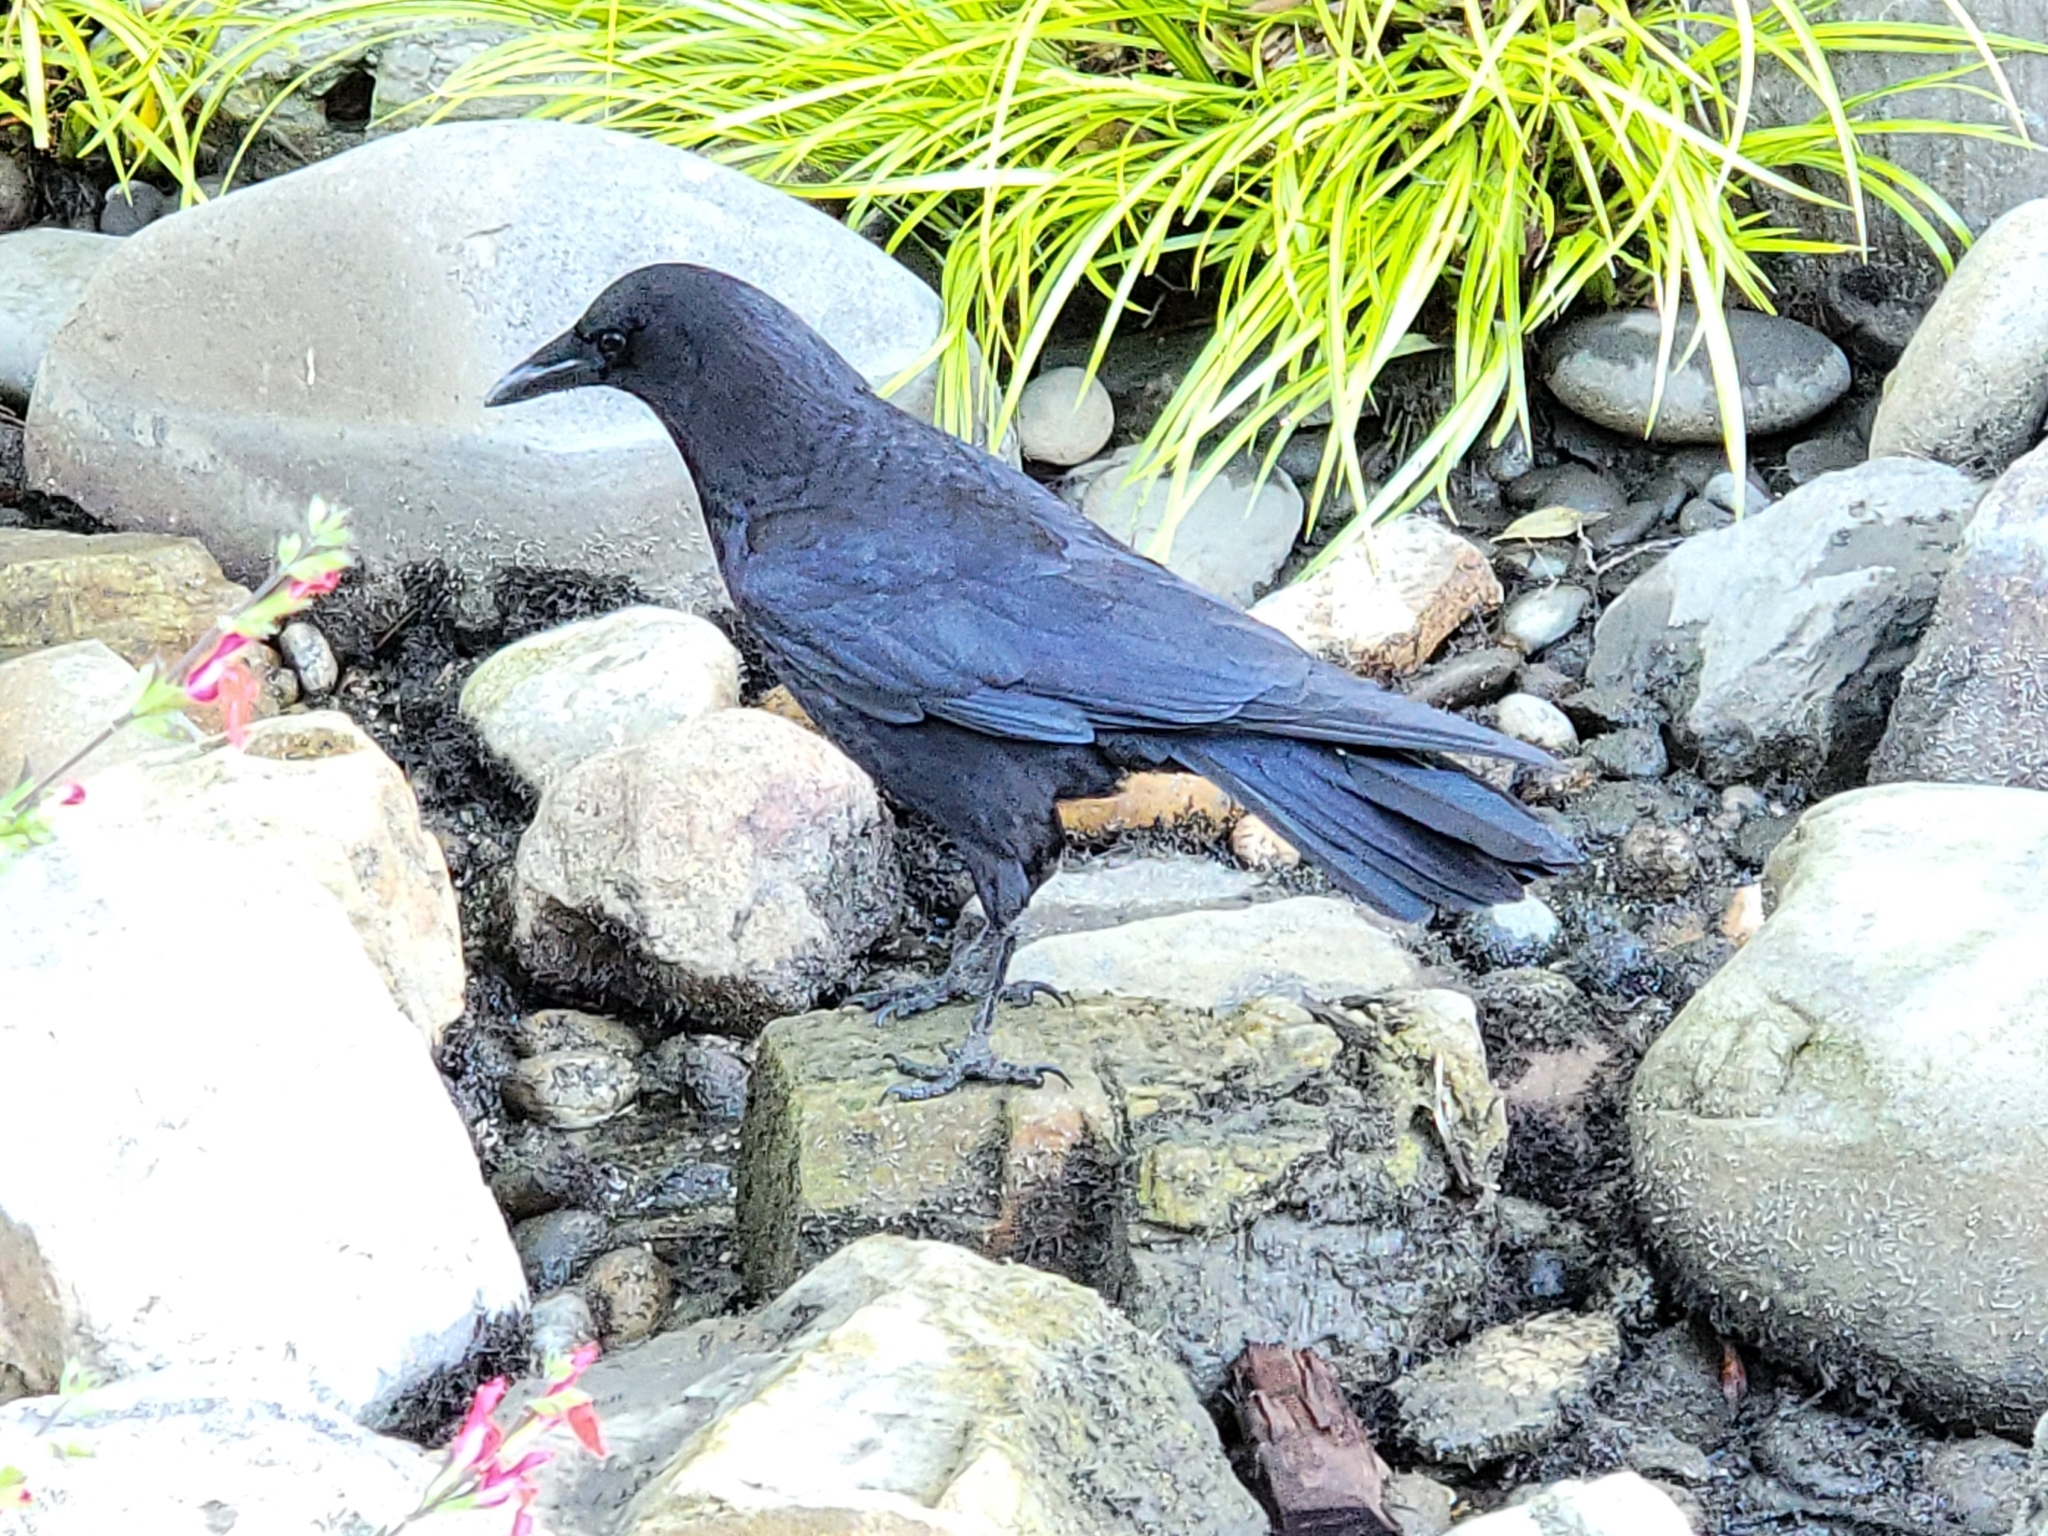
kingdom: Animalia
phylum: Chordata
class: Aves
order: Passeriformes
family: Corvidae
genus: Corvus
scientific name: Corvus brachyrhynchos
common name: American crow
